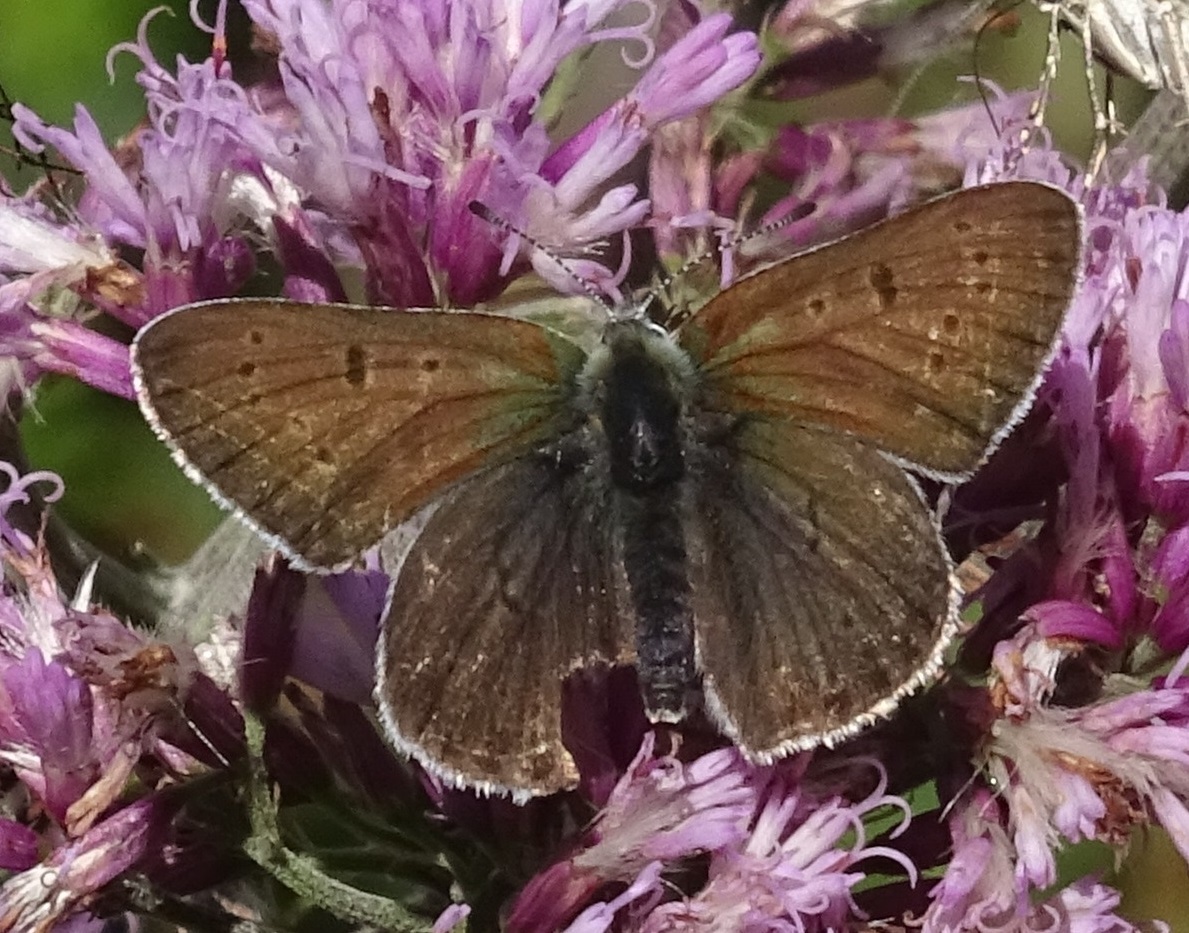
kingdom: Animalia
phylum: Arthropoda
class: Insecta
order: Lepidoptera
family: Lycaenidae
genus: Loweia
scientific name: Loweia tityrus
